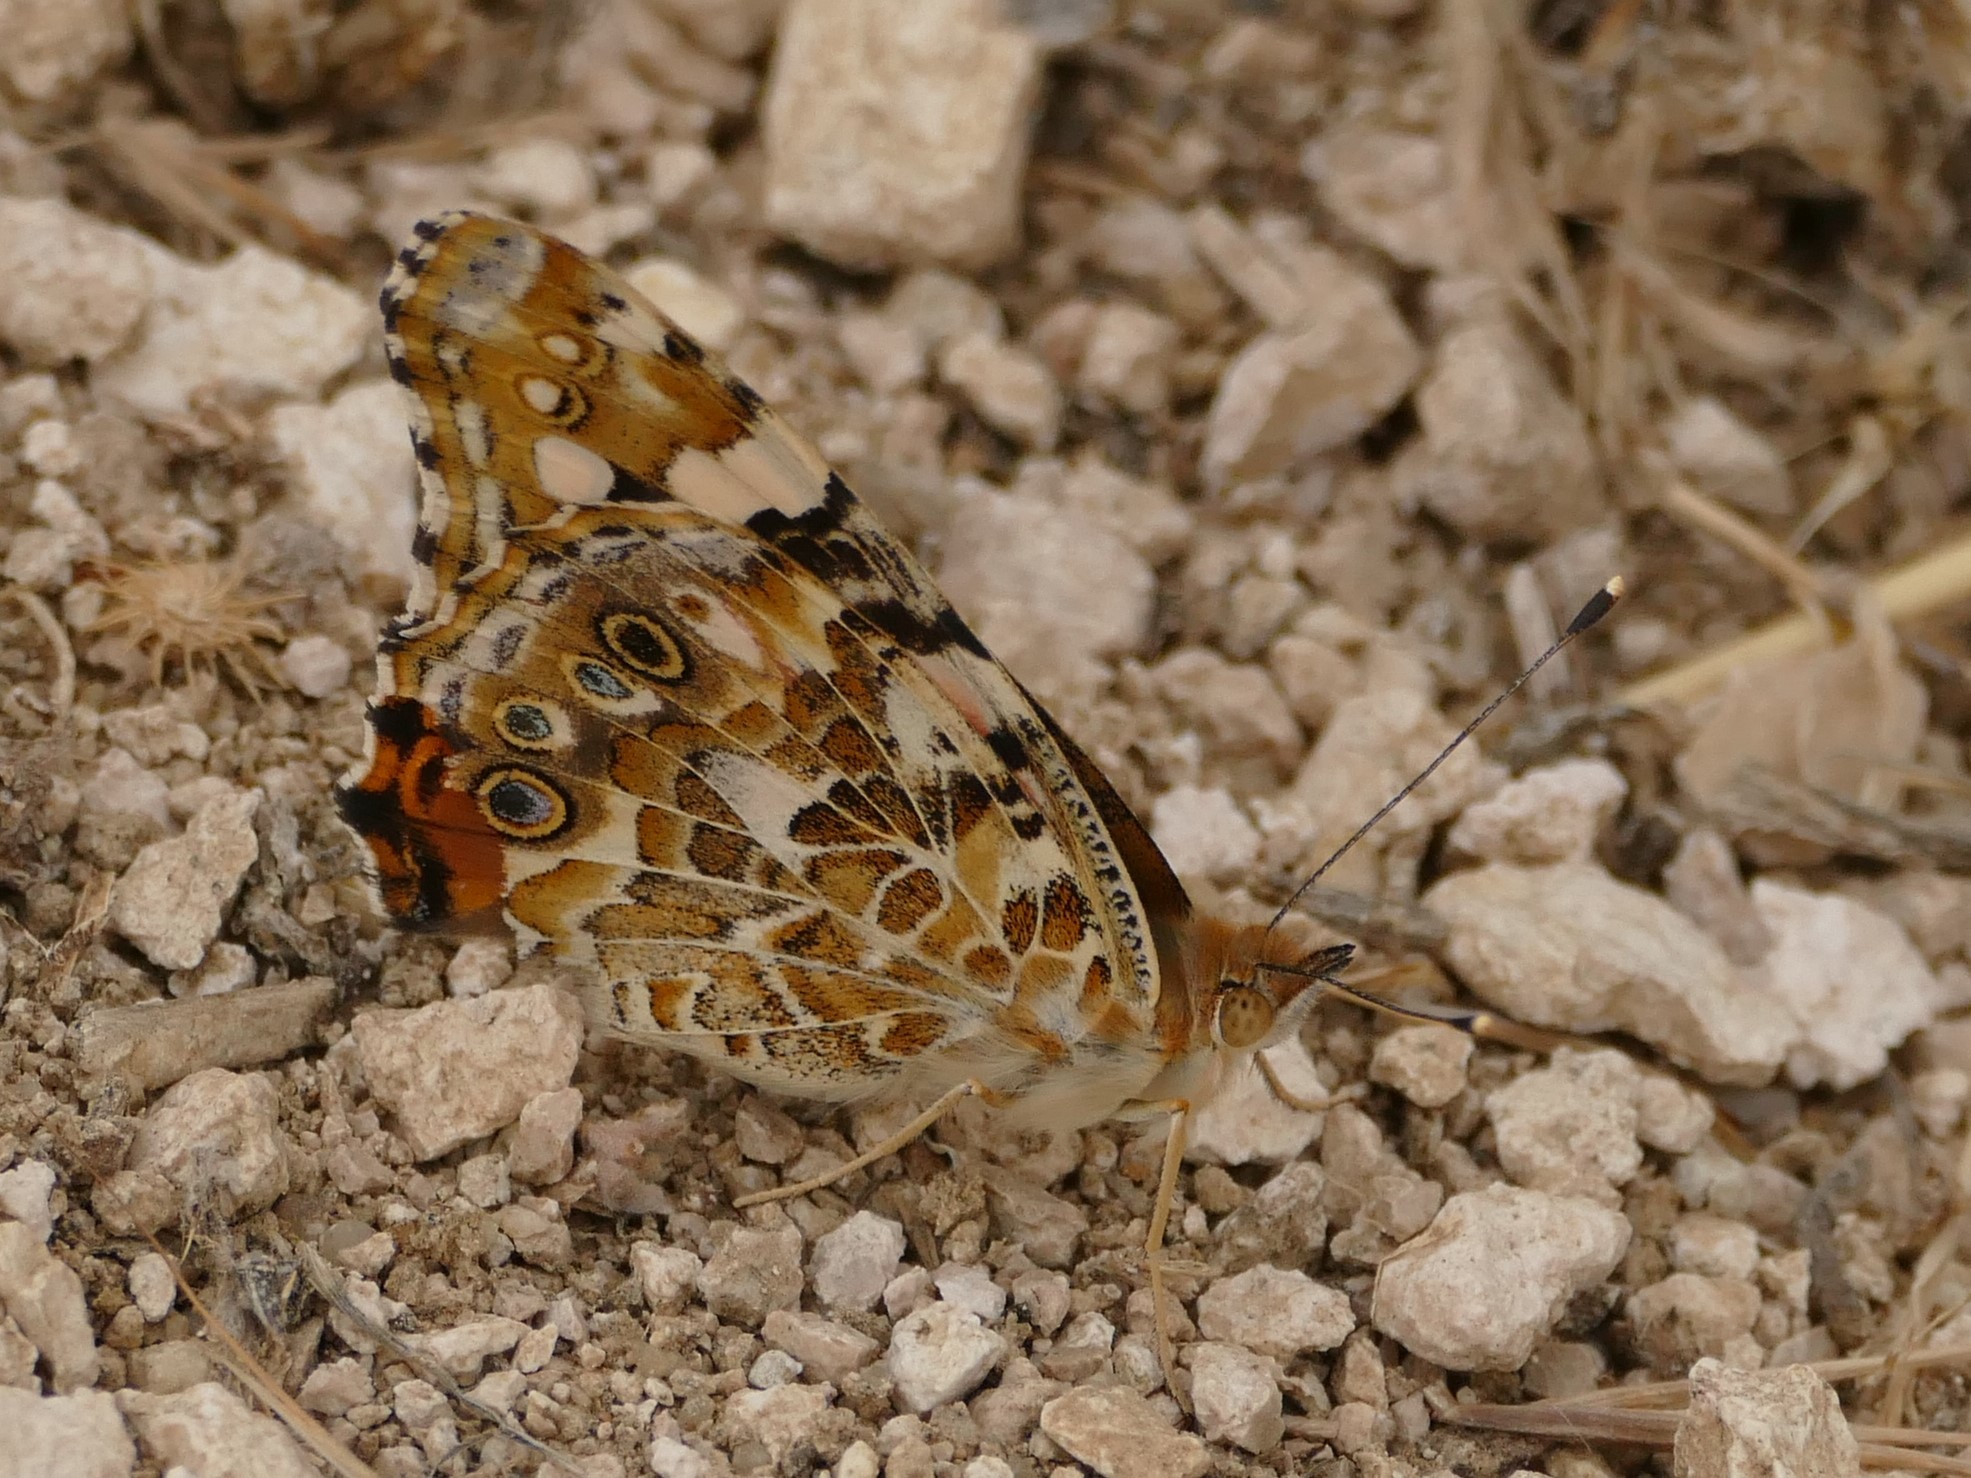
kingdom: Animalia
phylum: Arthropoda
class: Insecta
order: Lepidoptera
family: Nymphalidae
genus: Vanessa
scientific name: Vanessa cardui
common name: Painted lady
